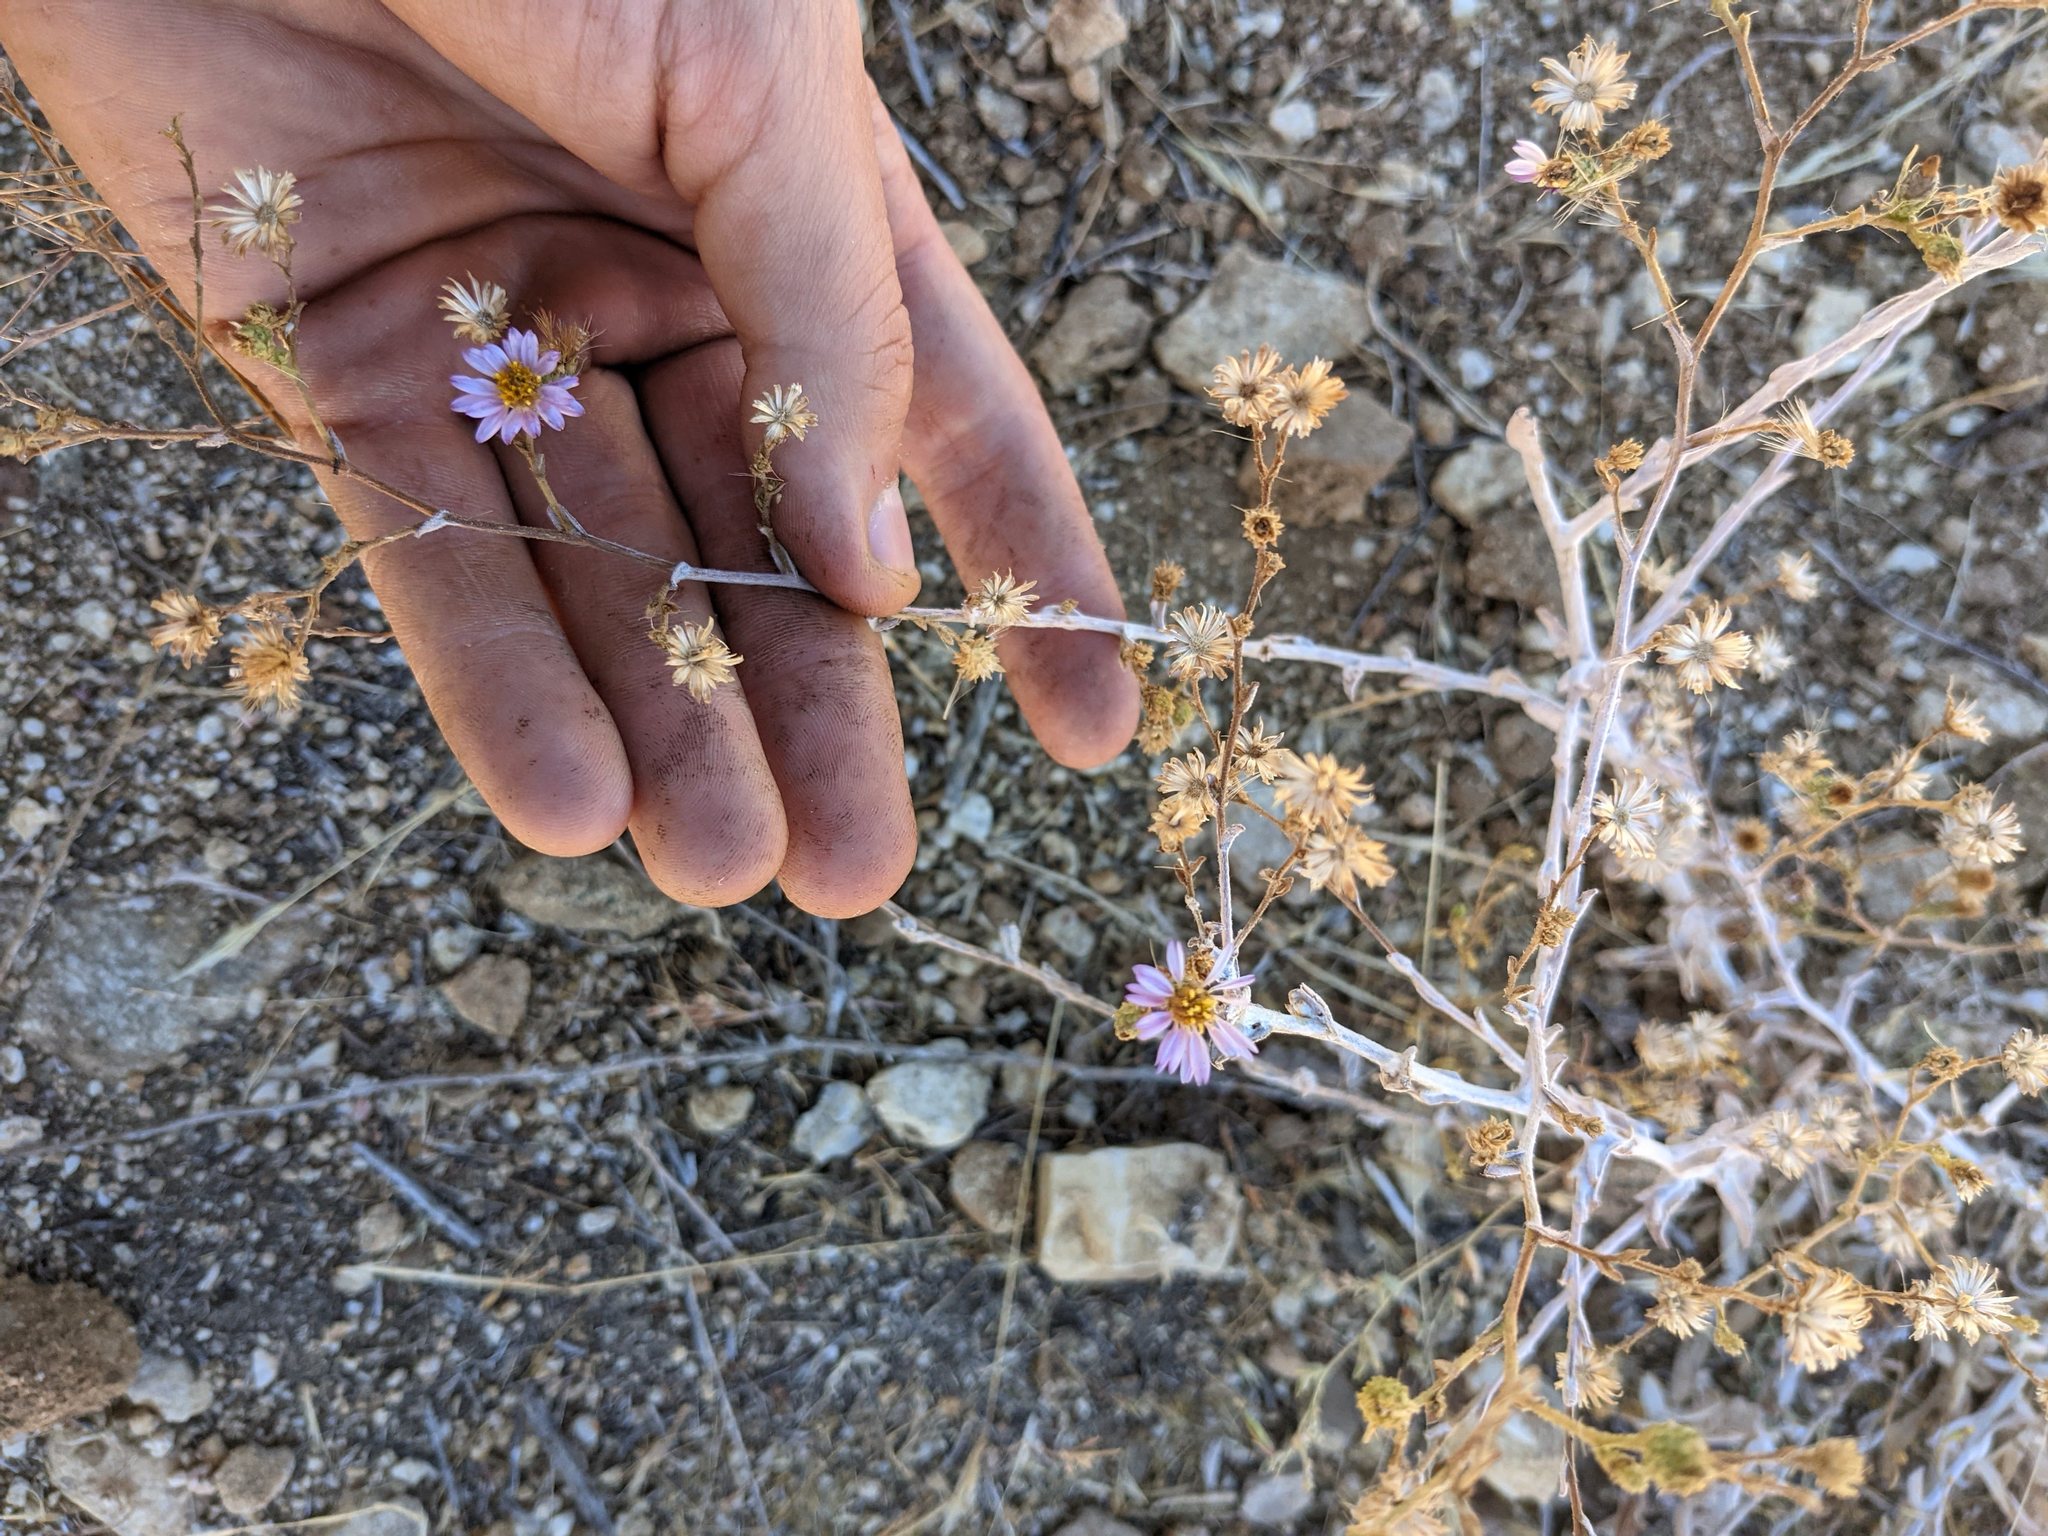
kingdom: Plantae
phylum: Tracheophyta
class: Magnoliopsida
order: Asterales
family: Asteraceae
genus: Corethrogyne
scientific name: Corethrogyne filaginifolia
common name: Sand-aster
